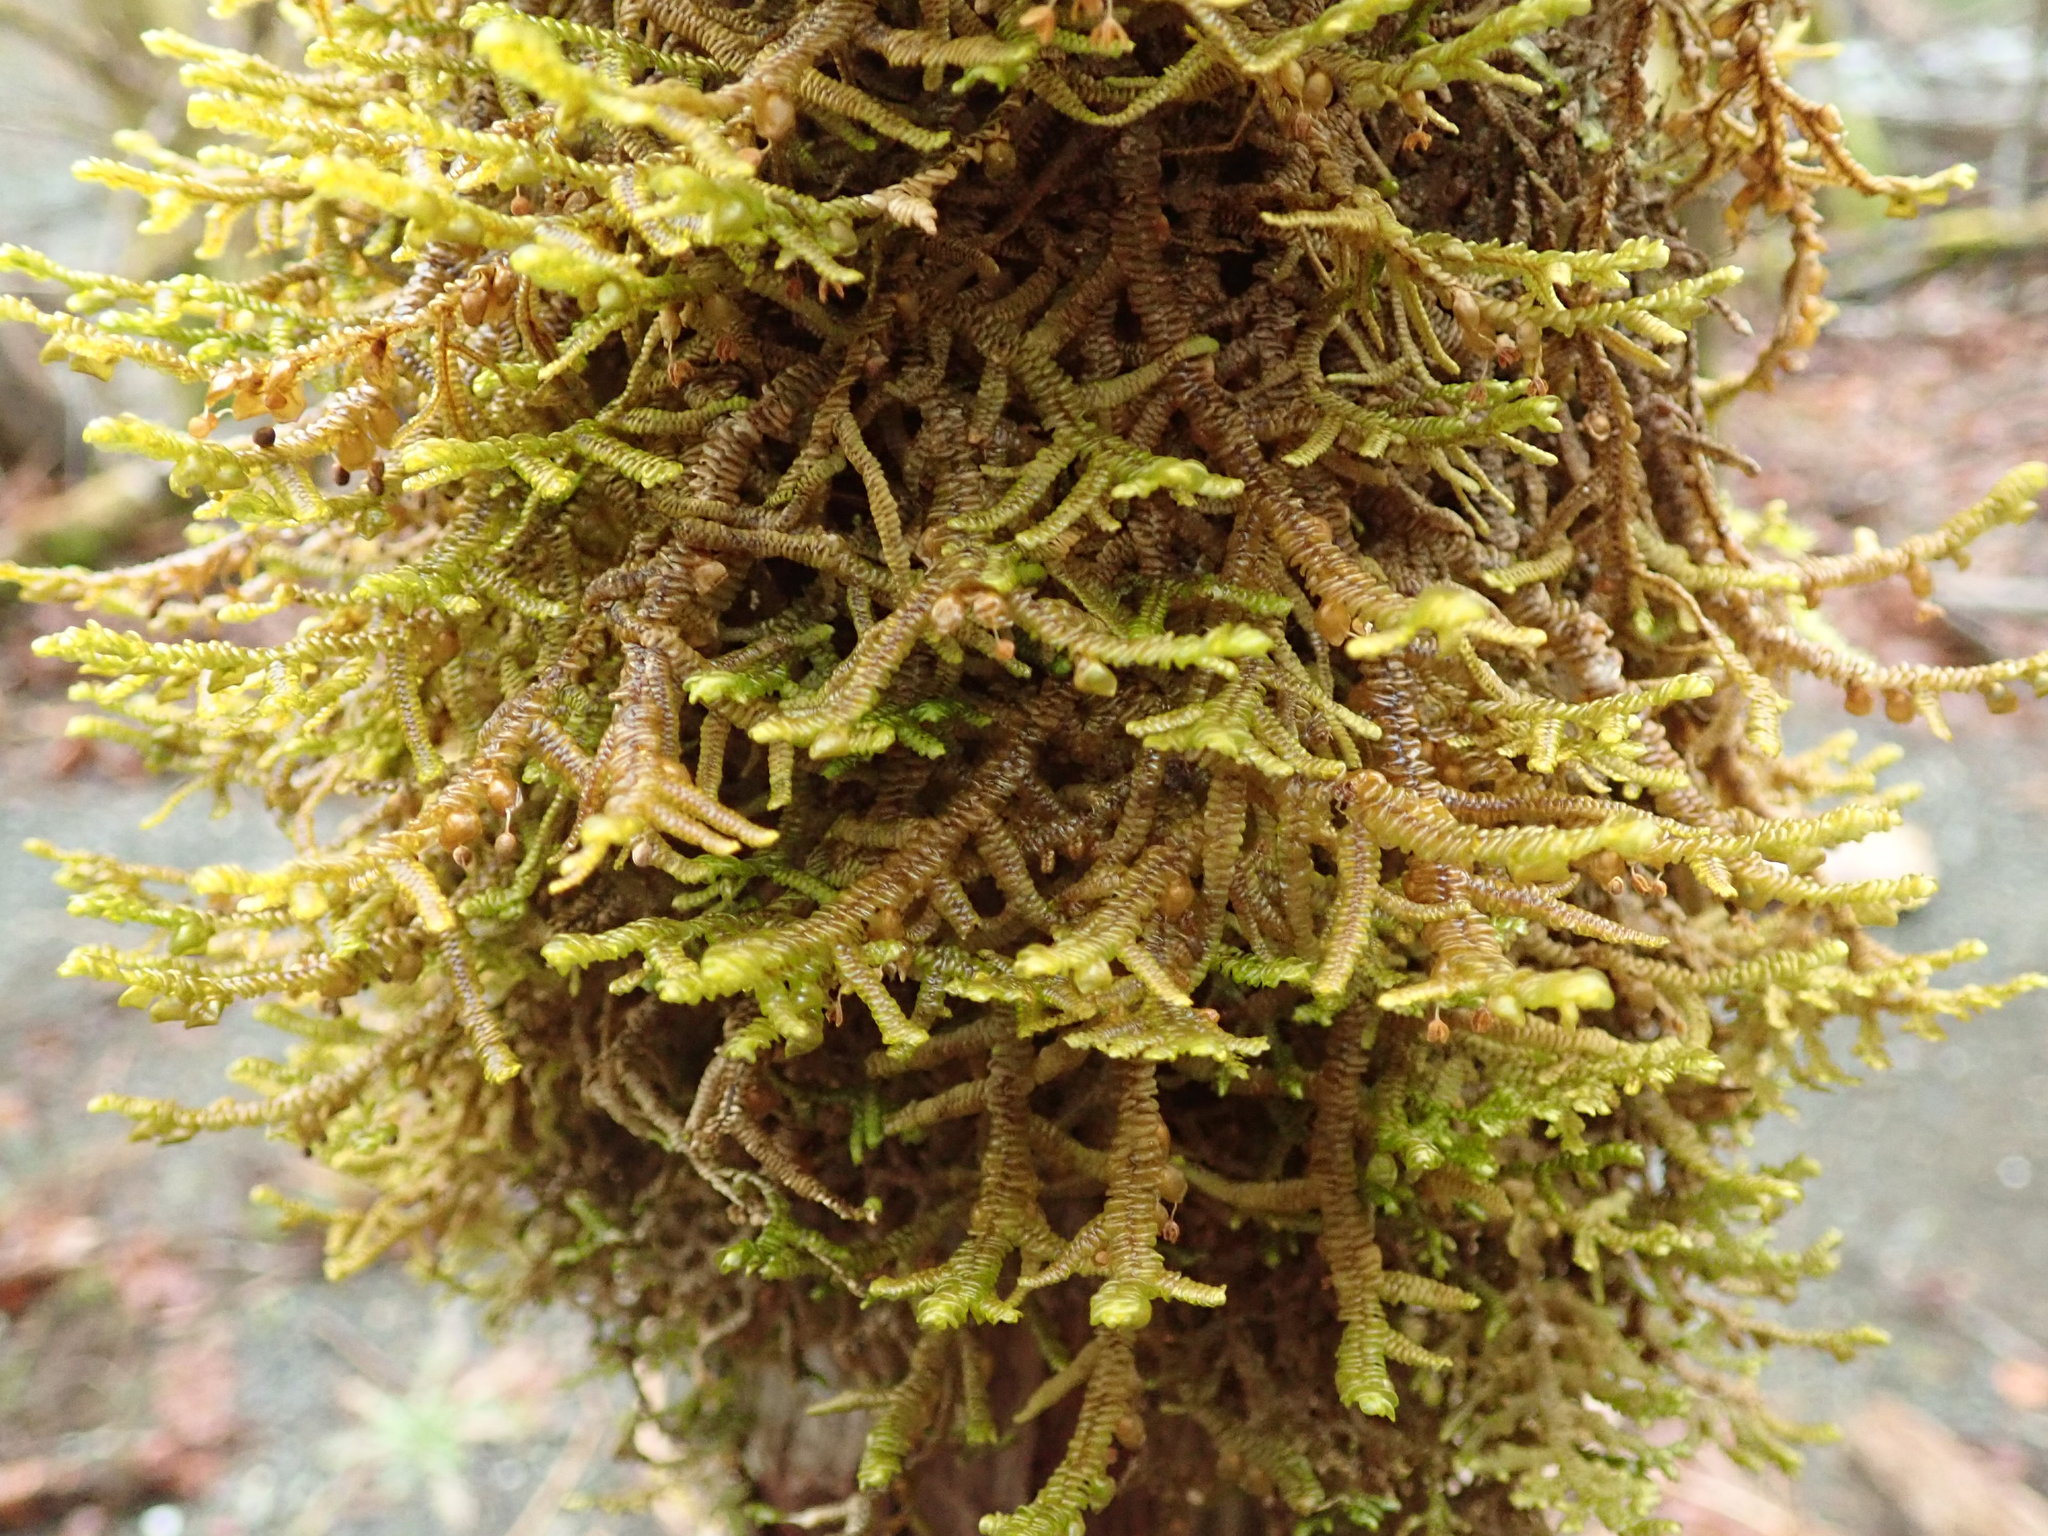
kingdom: Plantae
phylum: Marchantiophyta
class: Jungermanniopsida
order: Porellales
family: Porellaceae
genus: Porella
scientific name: Porella navicularis
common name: Tree ruffle liverwort
